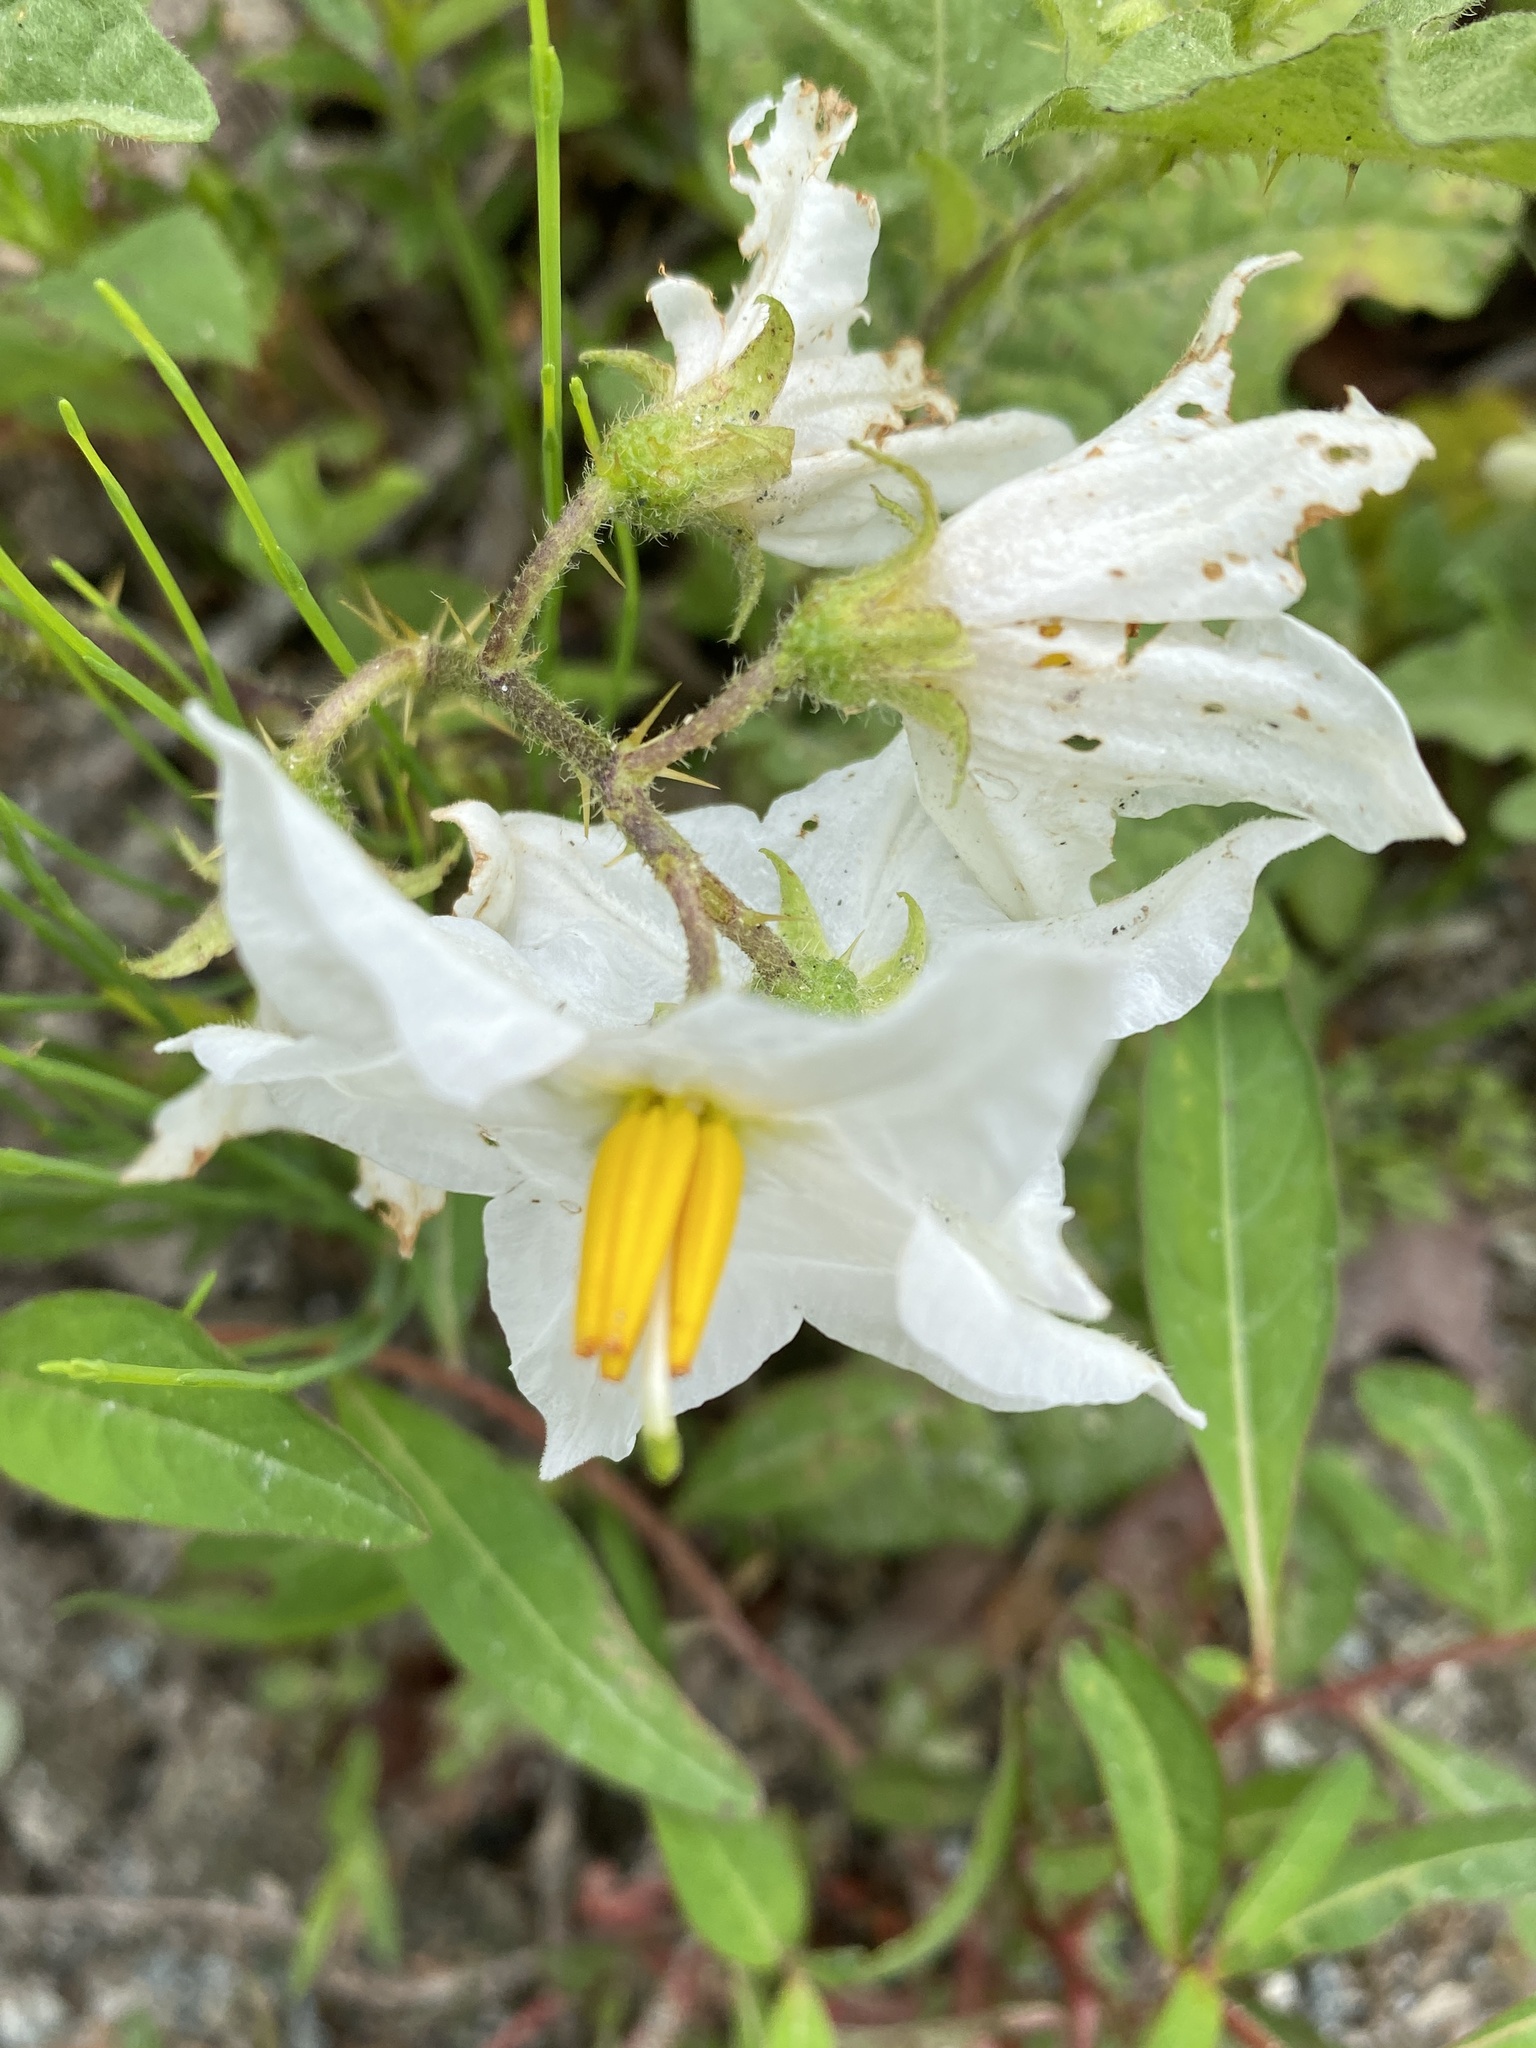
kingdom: Plantae
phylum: Tracheophyta
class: Magnoliopsida
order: Solanales
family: Solanaceae
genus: Solanum
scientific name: Solanum carolinense
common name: Horse-nettle
